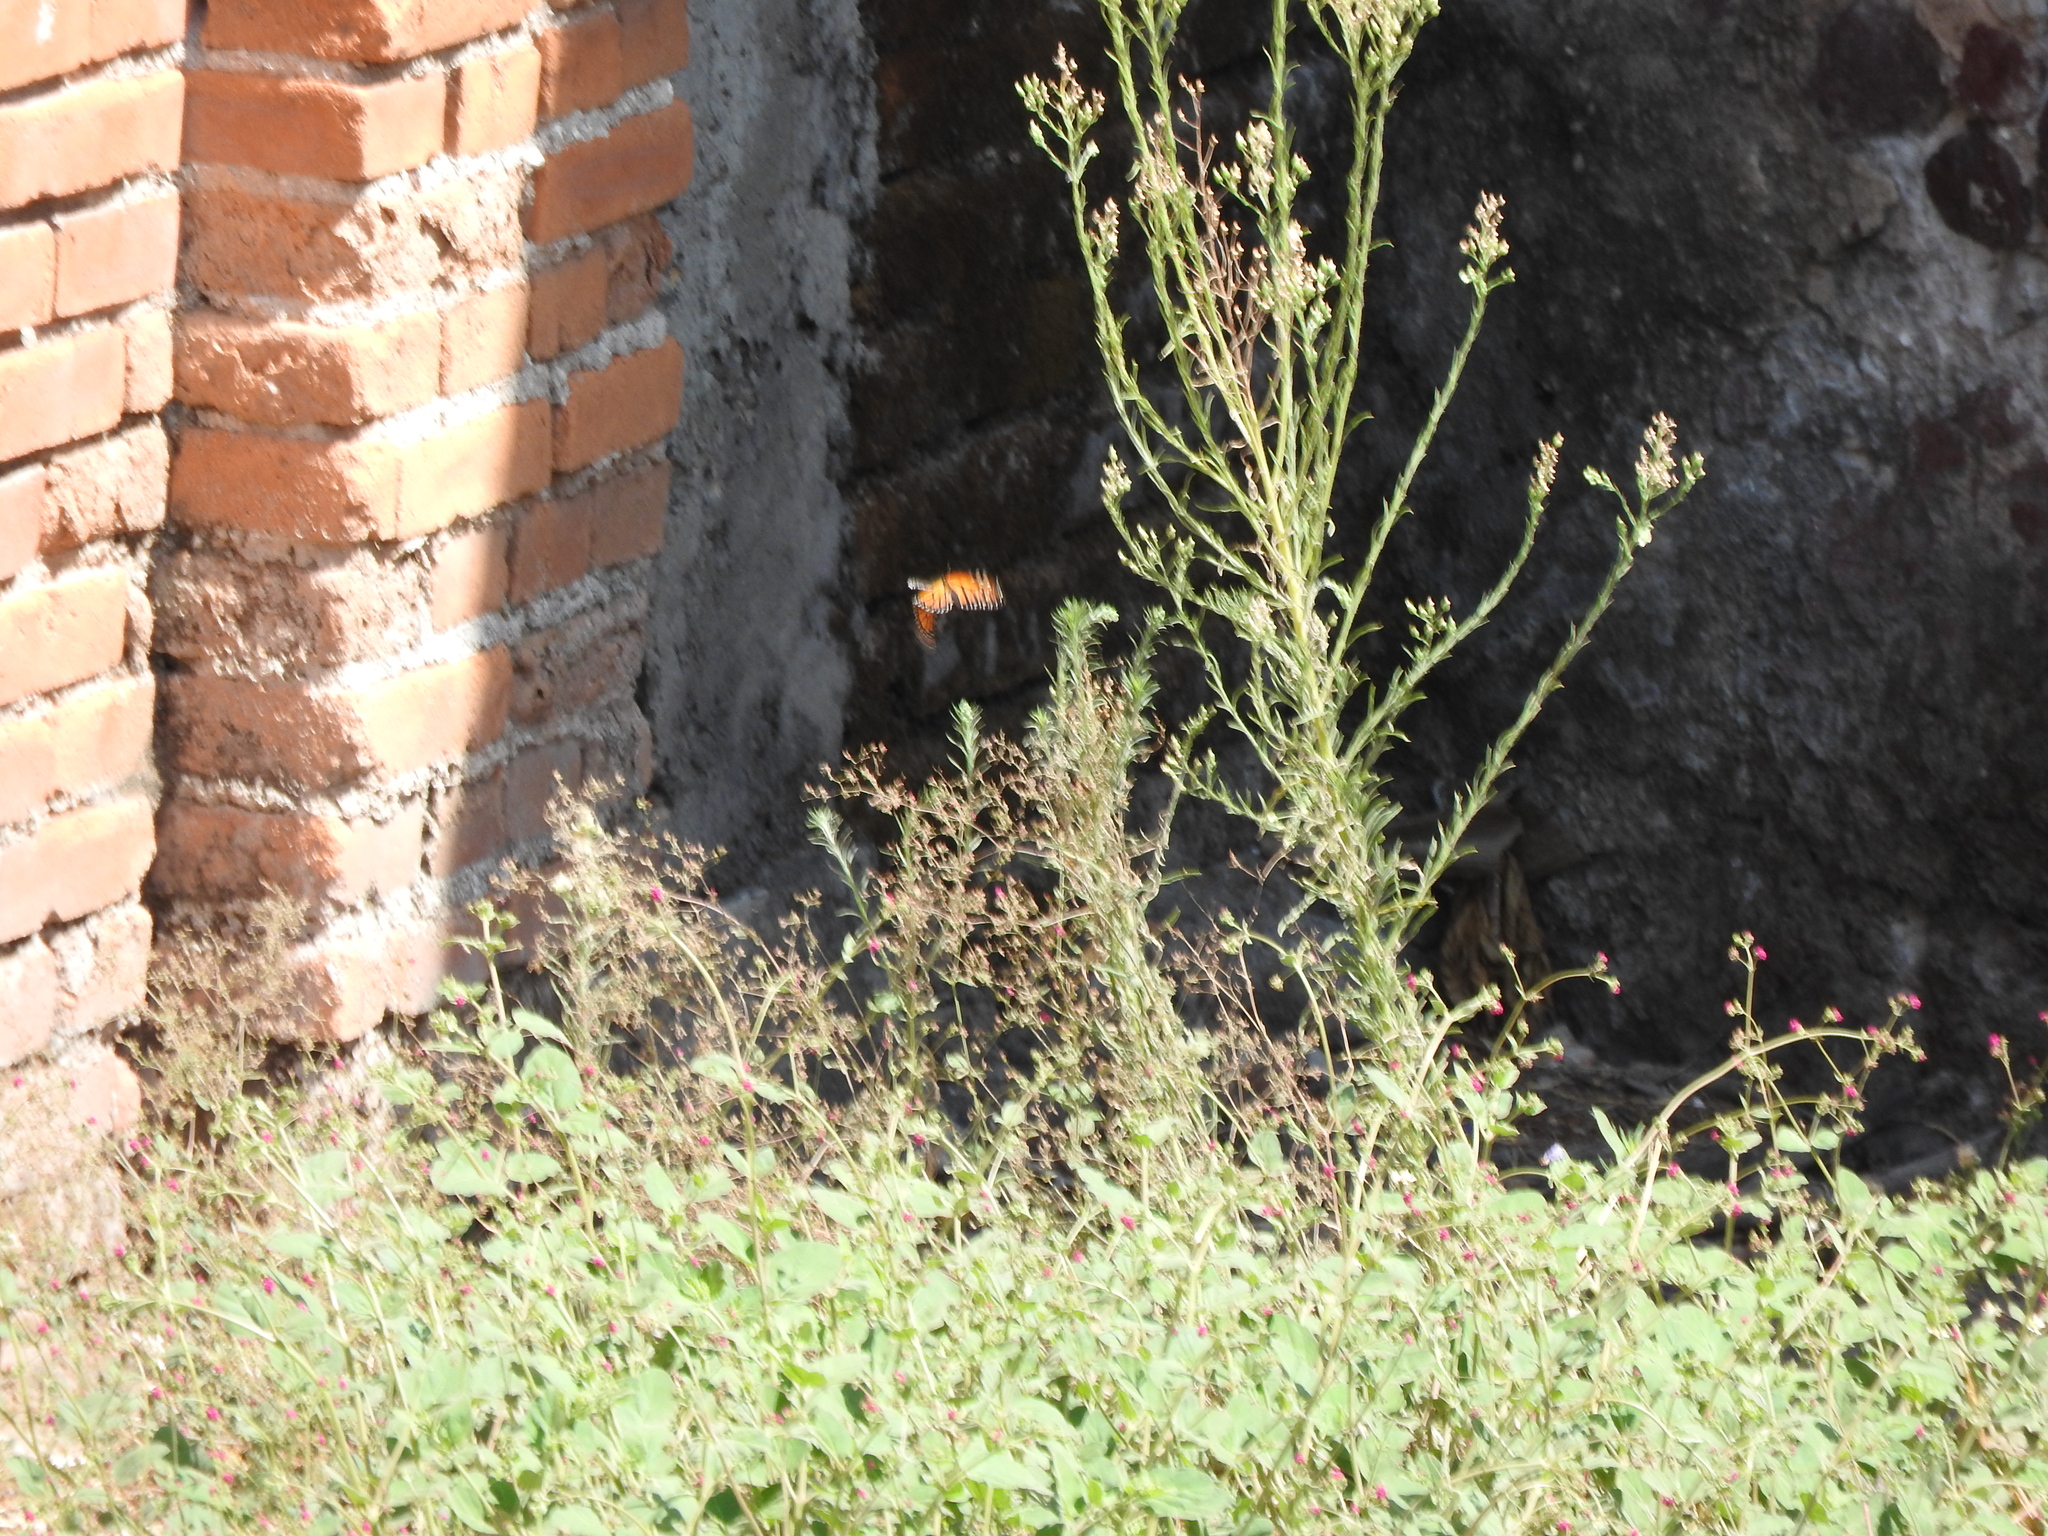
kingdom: Animalia
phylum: Arthropoda
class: Insecta
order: Lepidoptera
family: Nymphalidae
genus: Danaus
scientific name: Danaus plexippus
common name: Monarch
